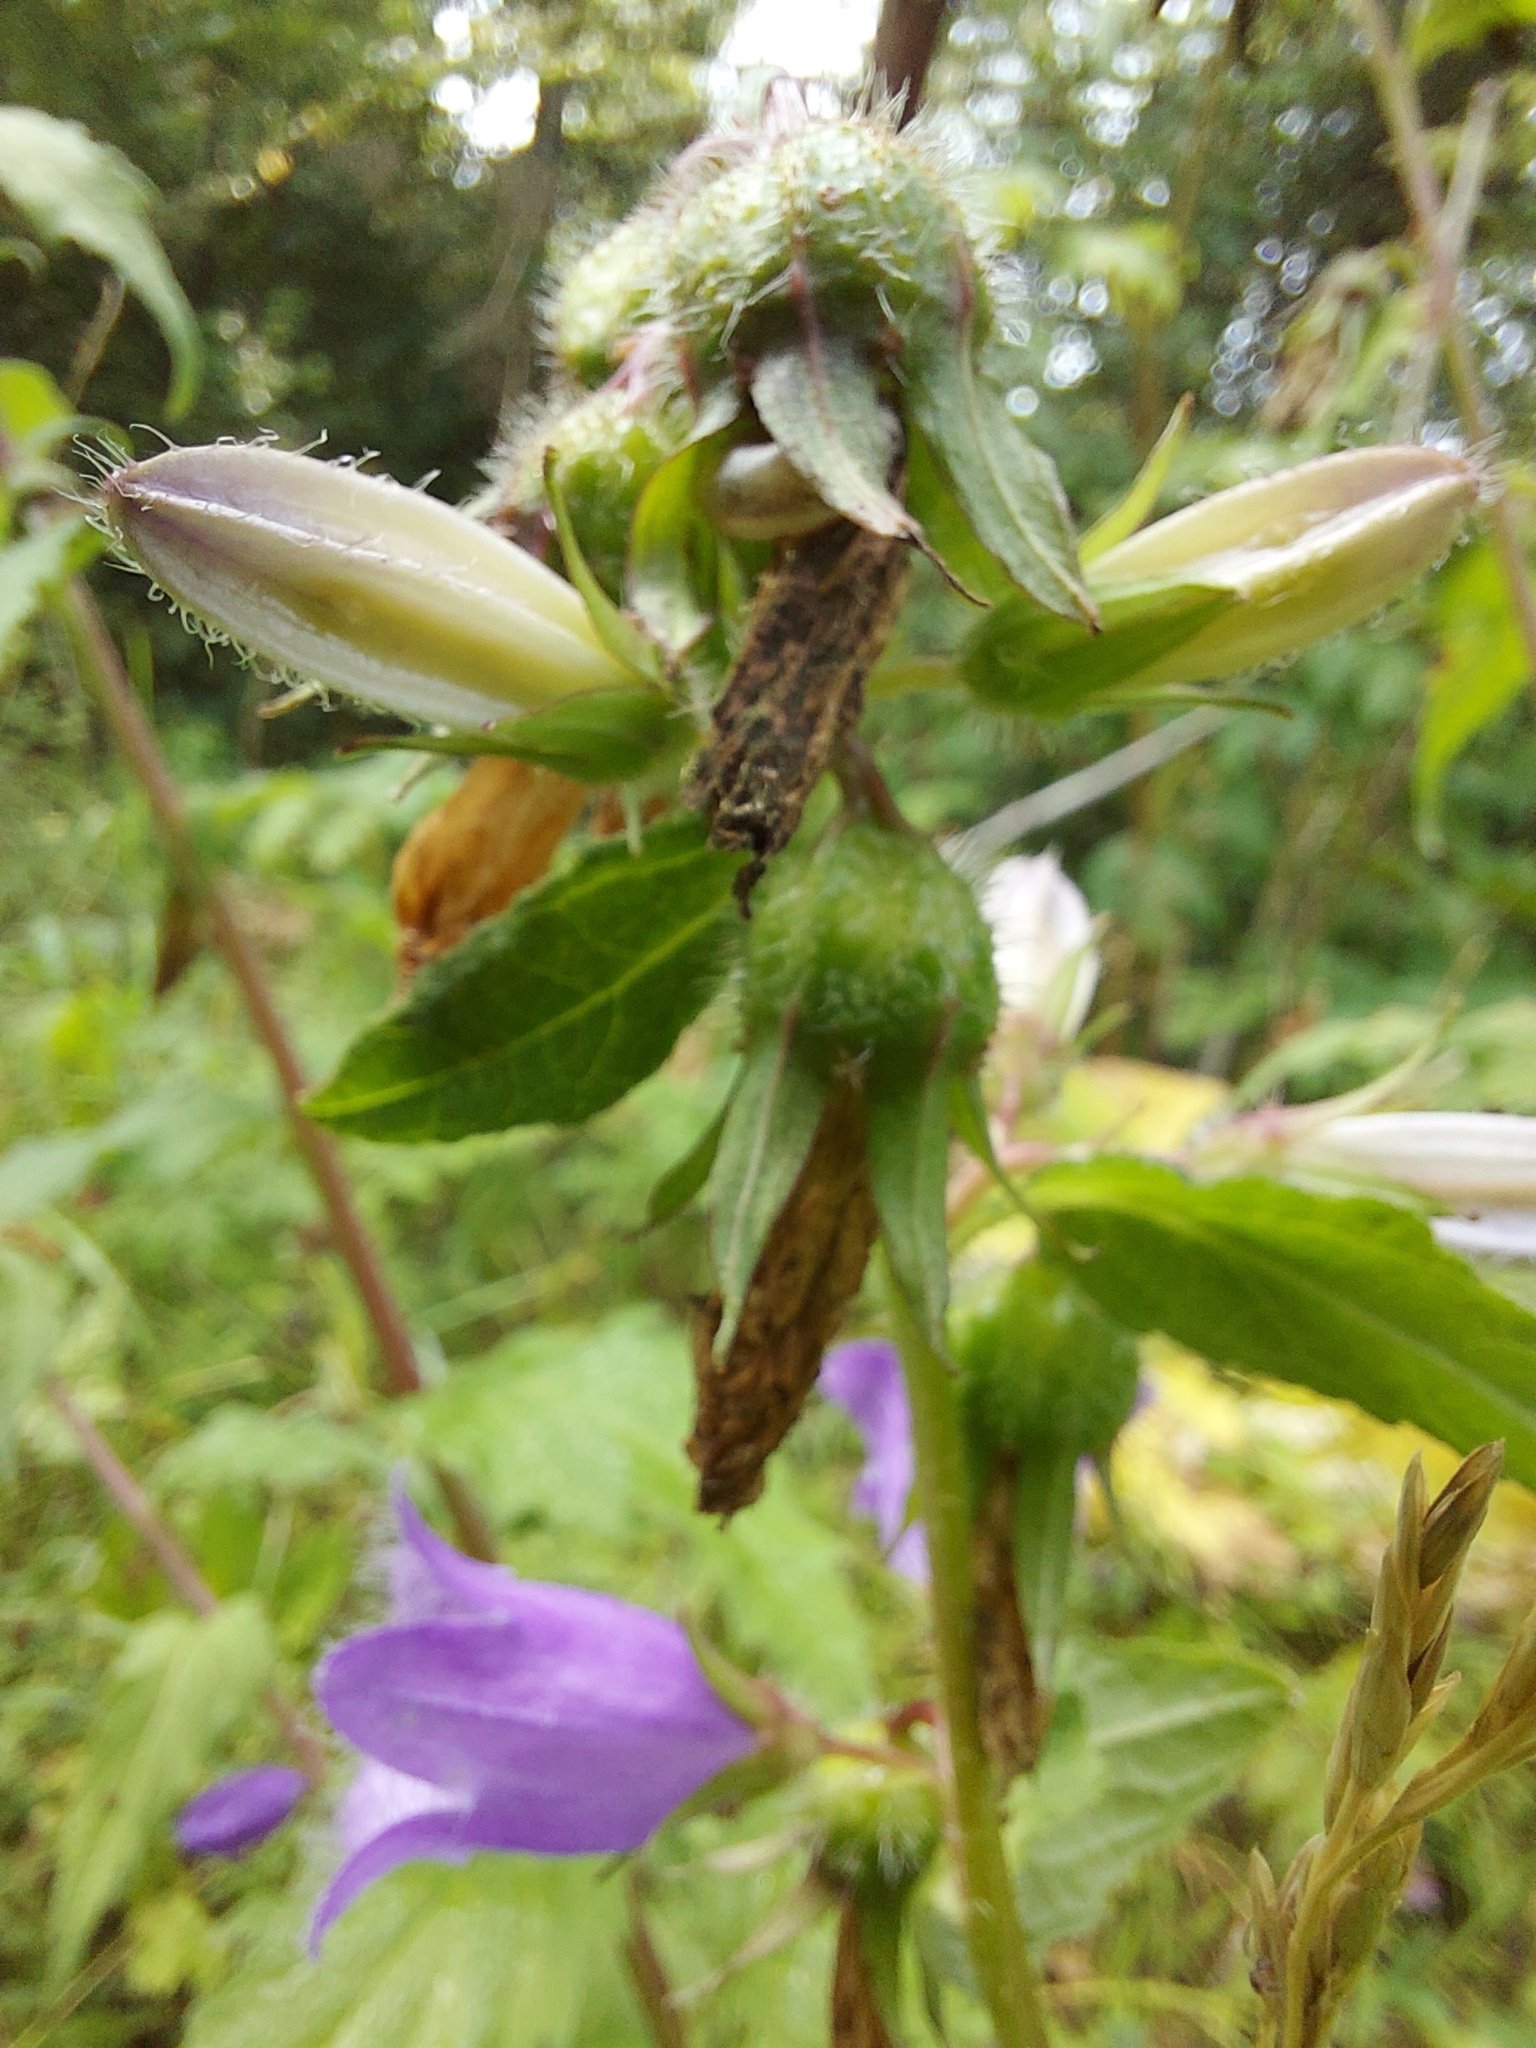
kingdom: Plantae
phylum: Tracheophyta
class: Magnoliopsida
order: Asterales
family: Campanulaceae
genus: Campanula
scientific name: Campanula trachelium
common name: Nettle-leaved bellflower
